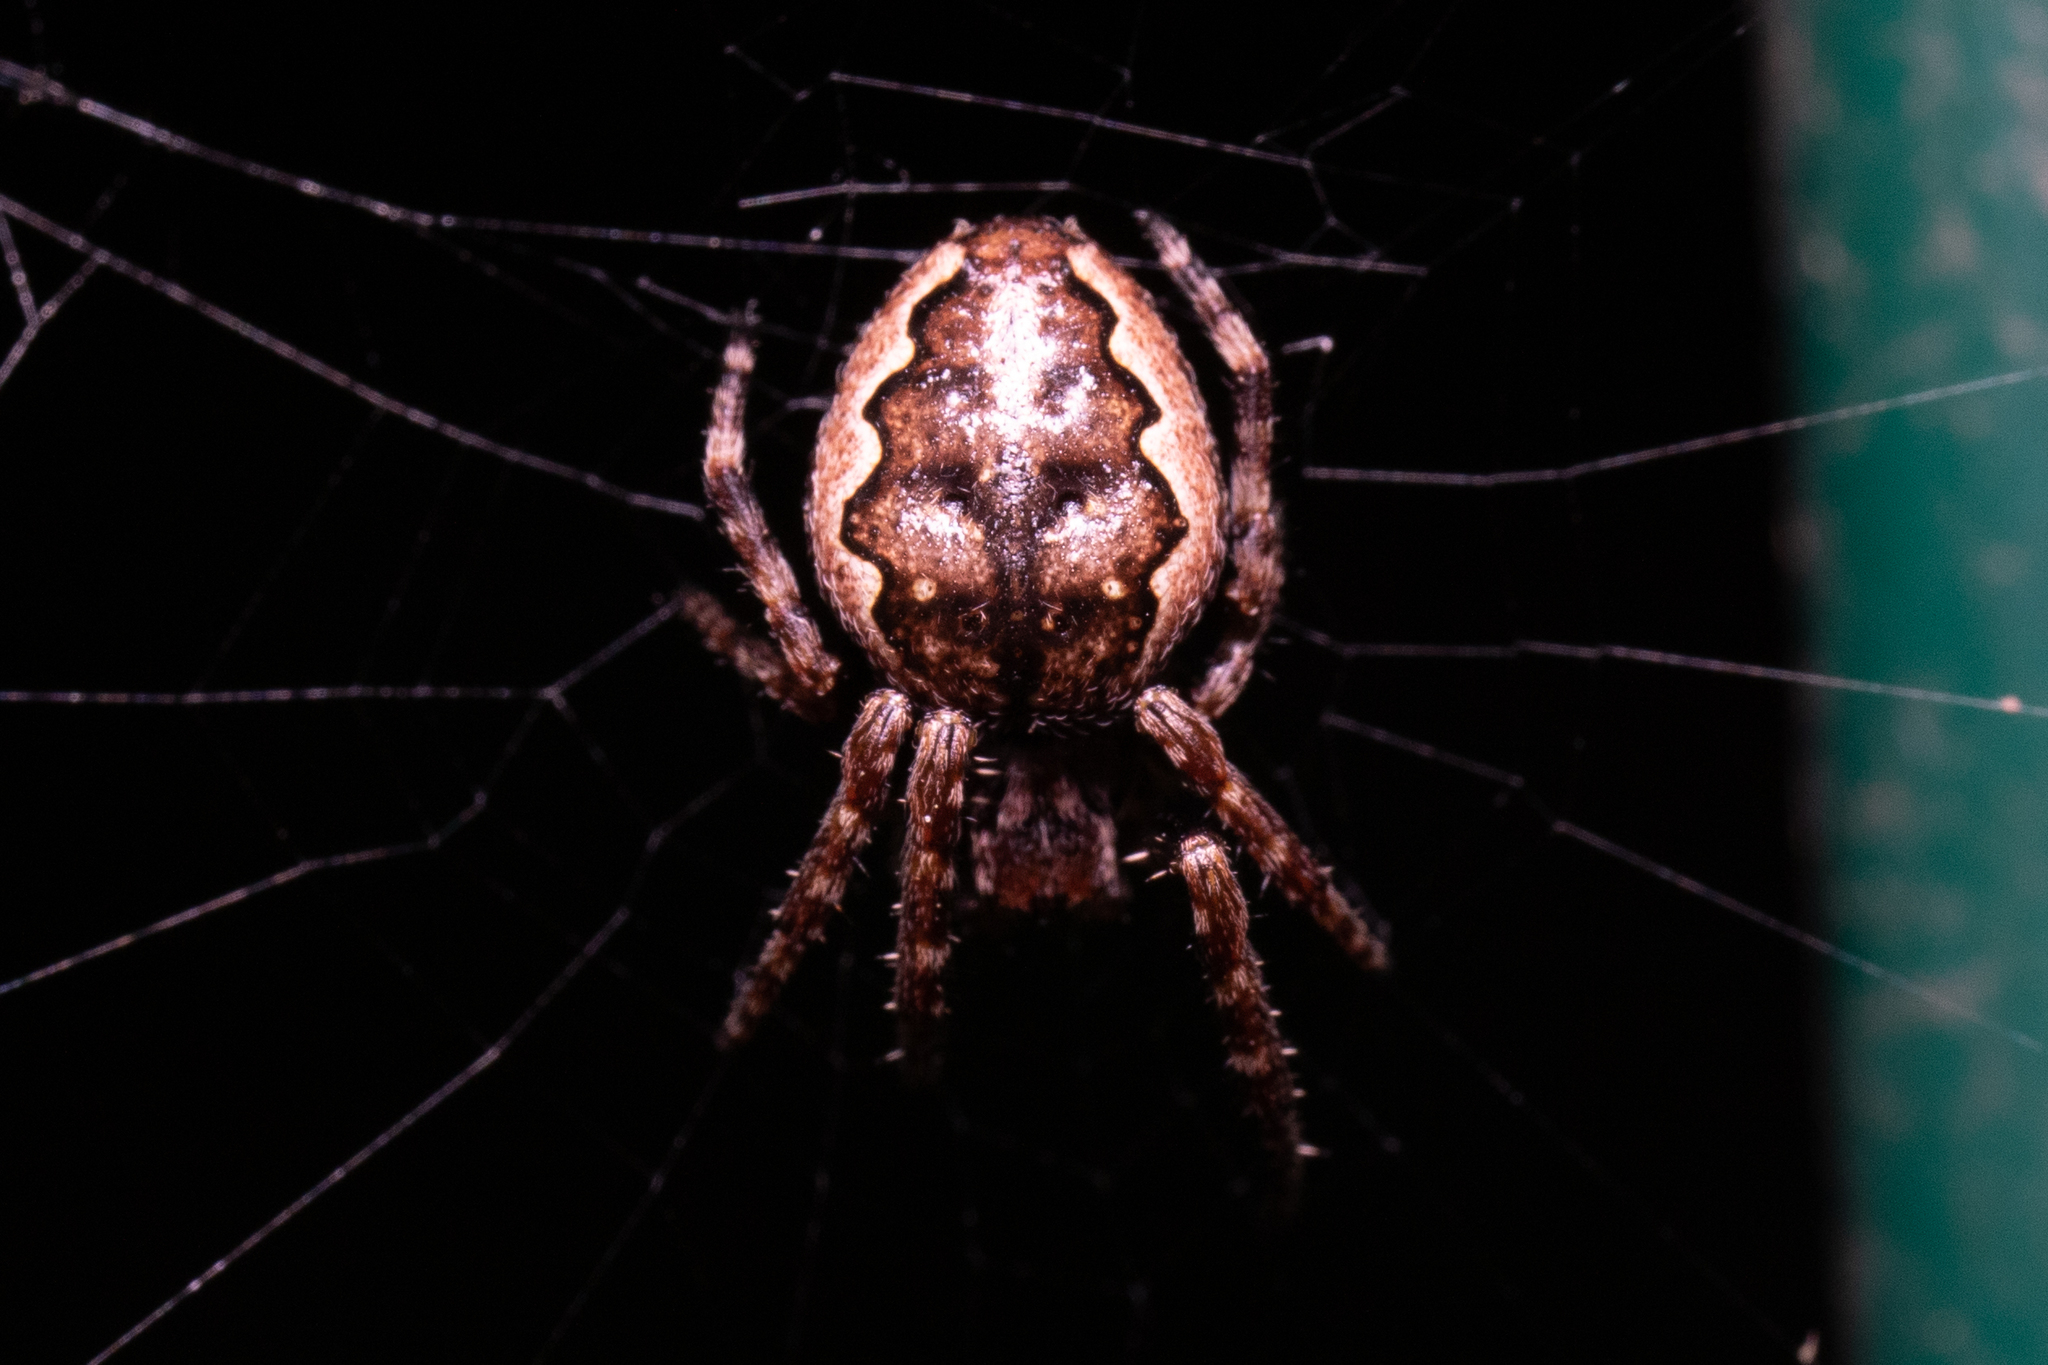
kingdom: Animalia
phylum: Arthropoda
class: Arachnida
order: Araneae
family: Araneidae
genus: Nuctenea
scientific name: Nuctenea umbratica
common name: Toad spider
